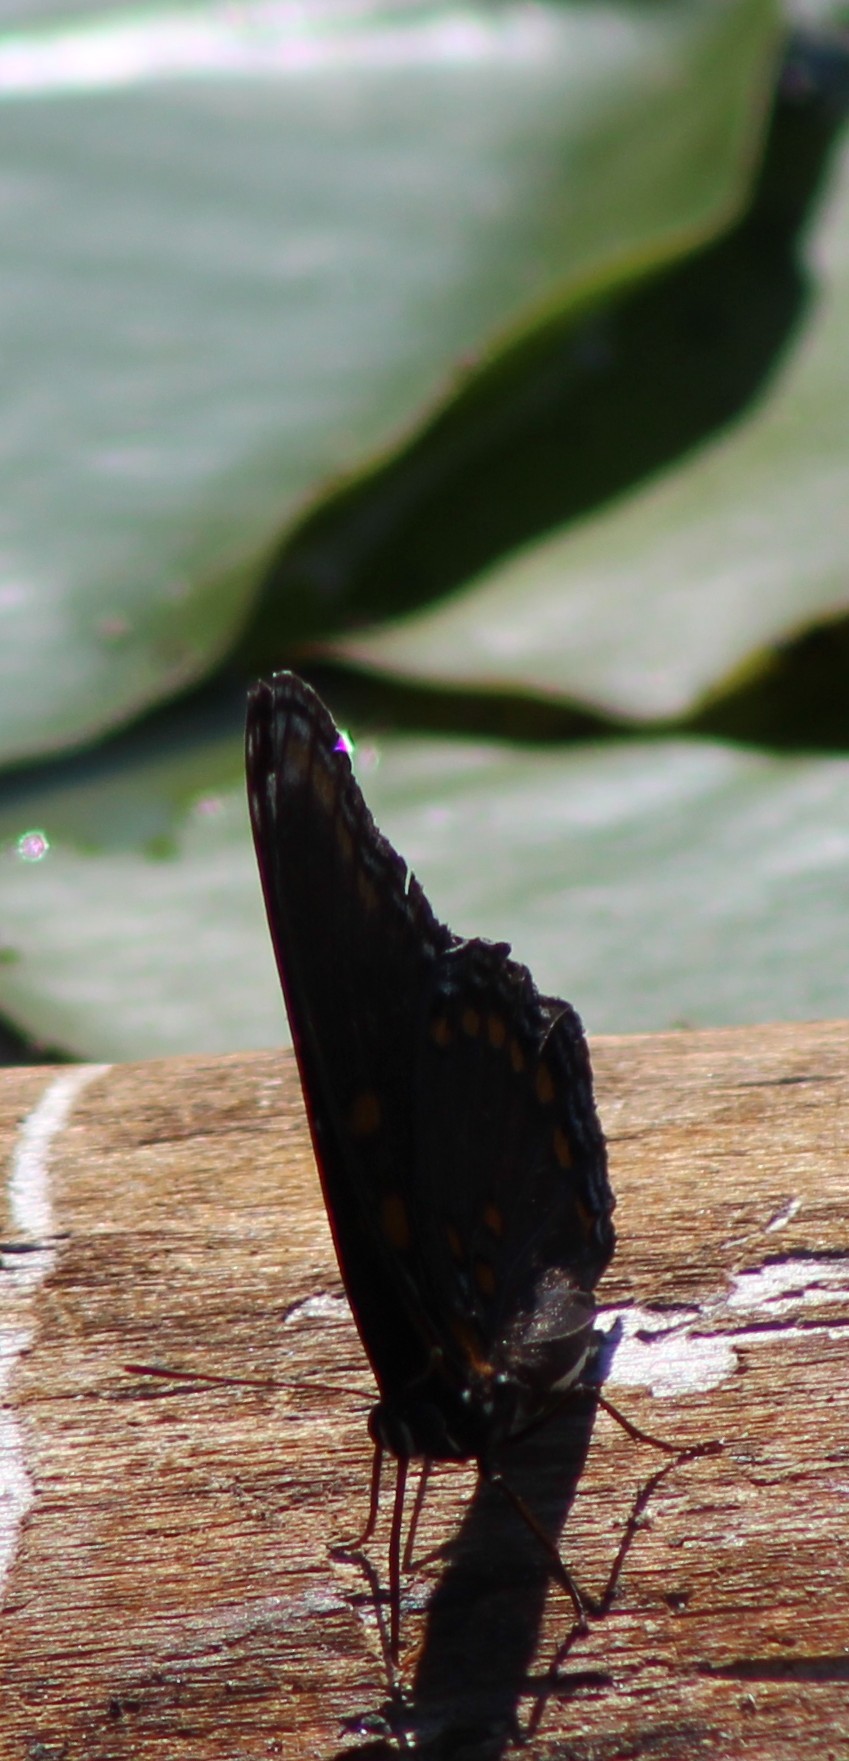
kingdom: Animalia
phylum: Arthropoda
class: Insecta
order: Lepidoptera
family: Nymphalidae
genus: Limenitis
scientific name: Limenitis astyanax
